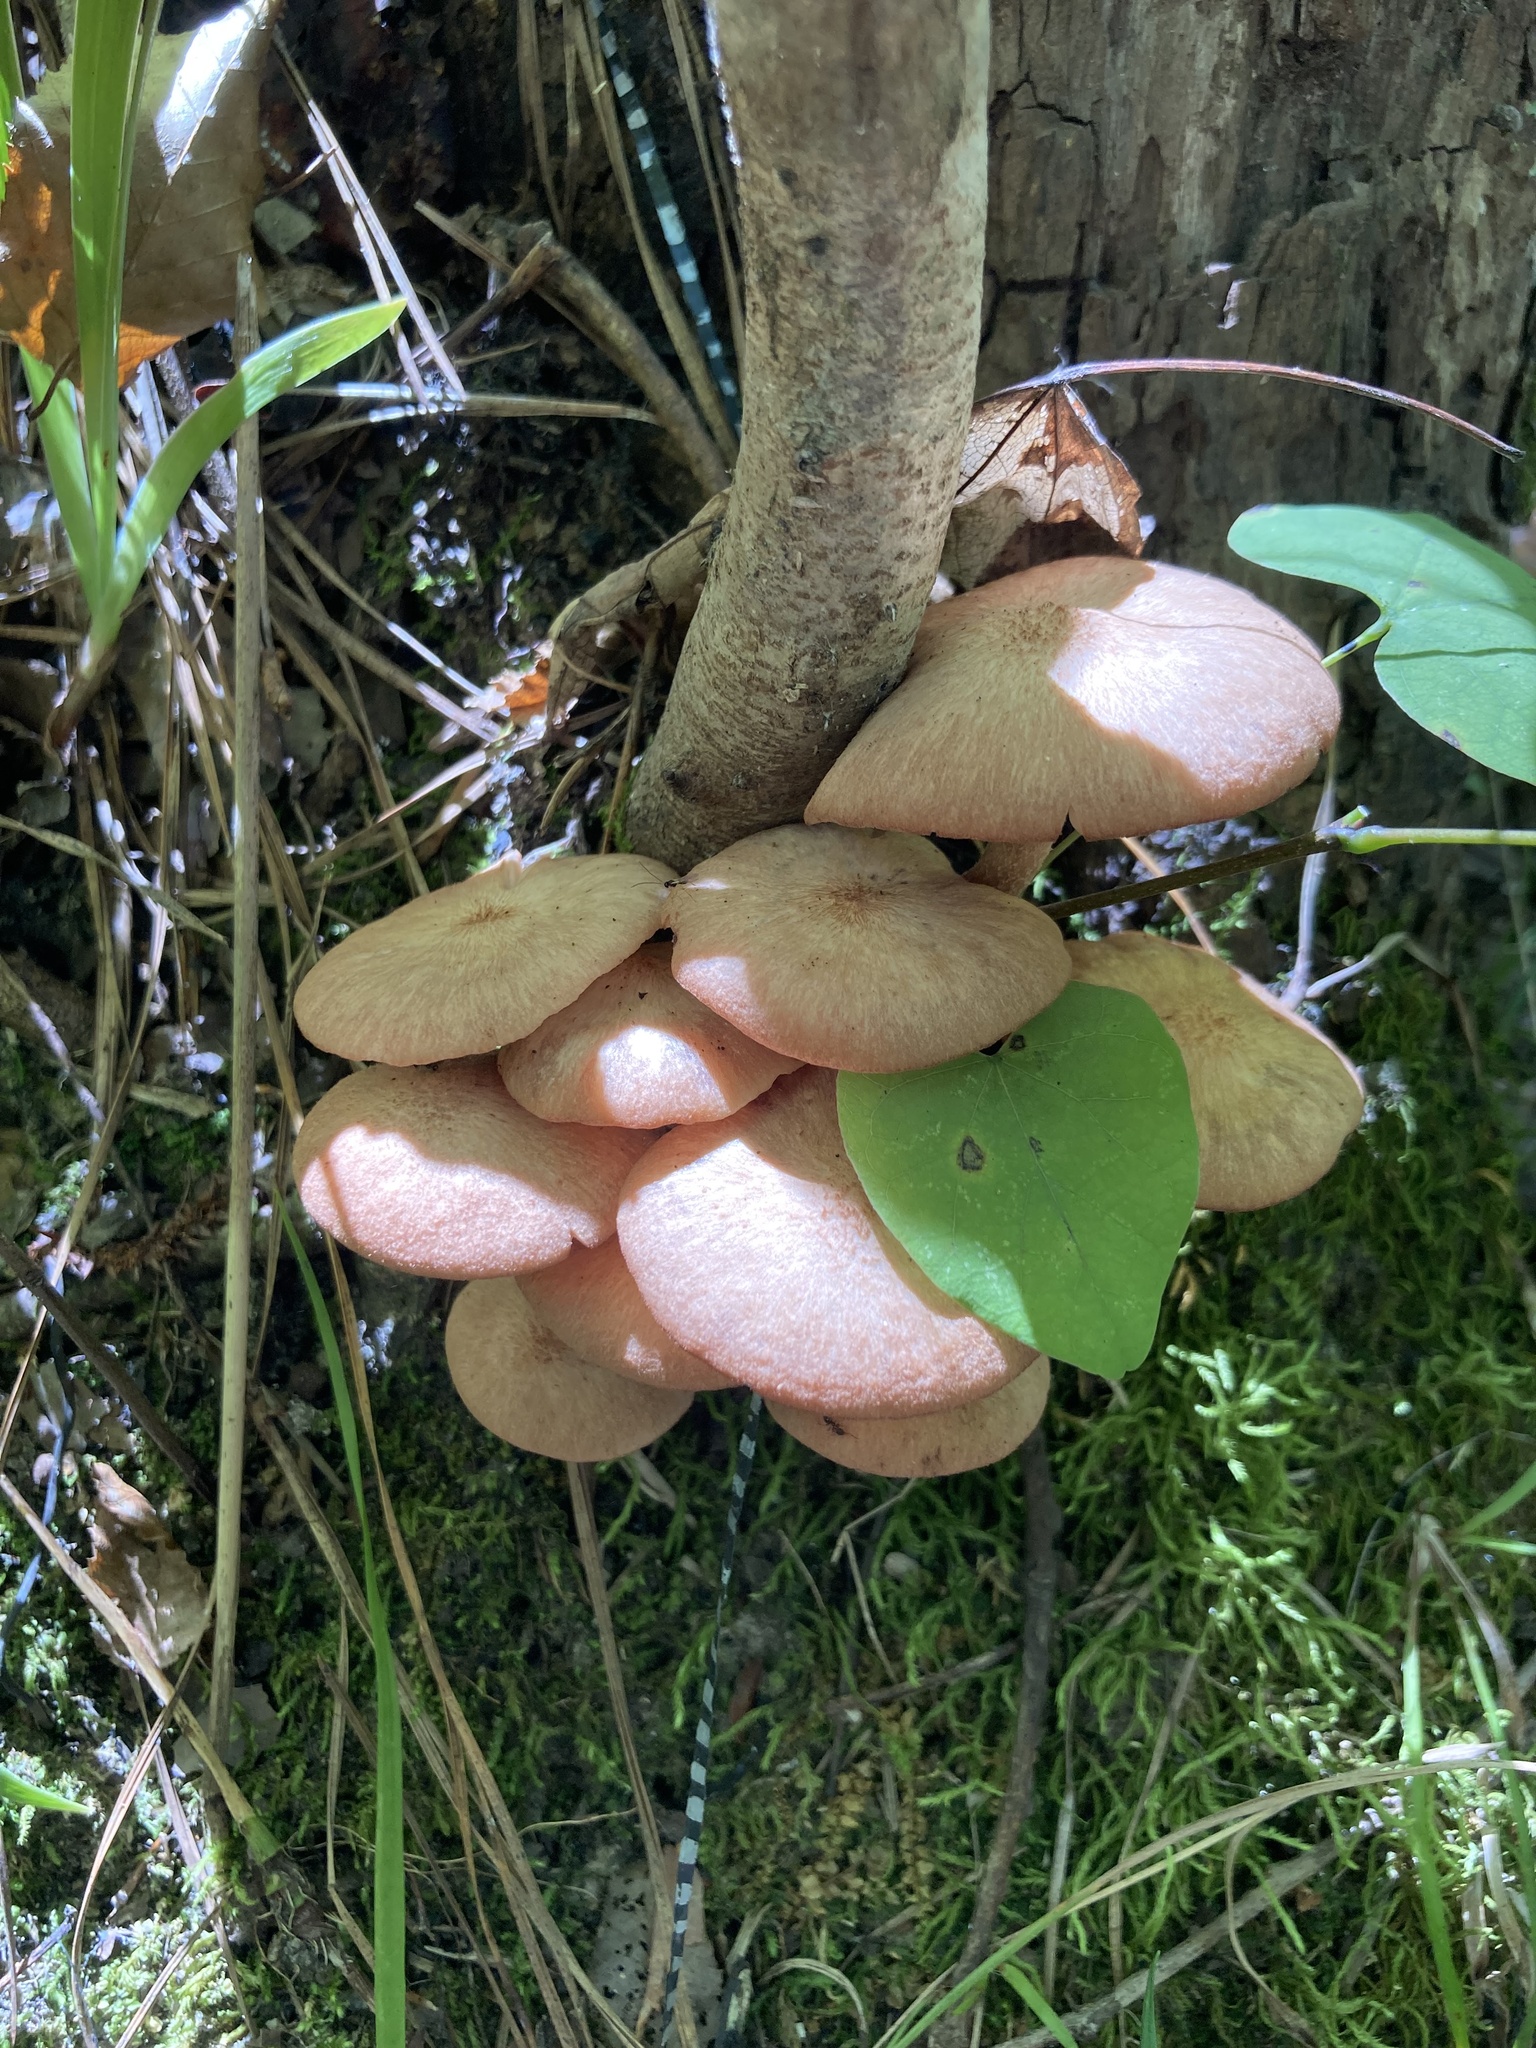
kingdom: Fungi
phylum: Basidiomycota
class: Agaricomycetes
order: Agaricales
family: Physalacriaceae
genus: Desarmillaria
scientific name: Desarmillaria caespitosa
